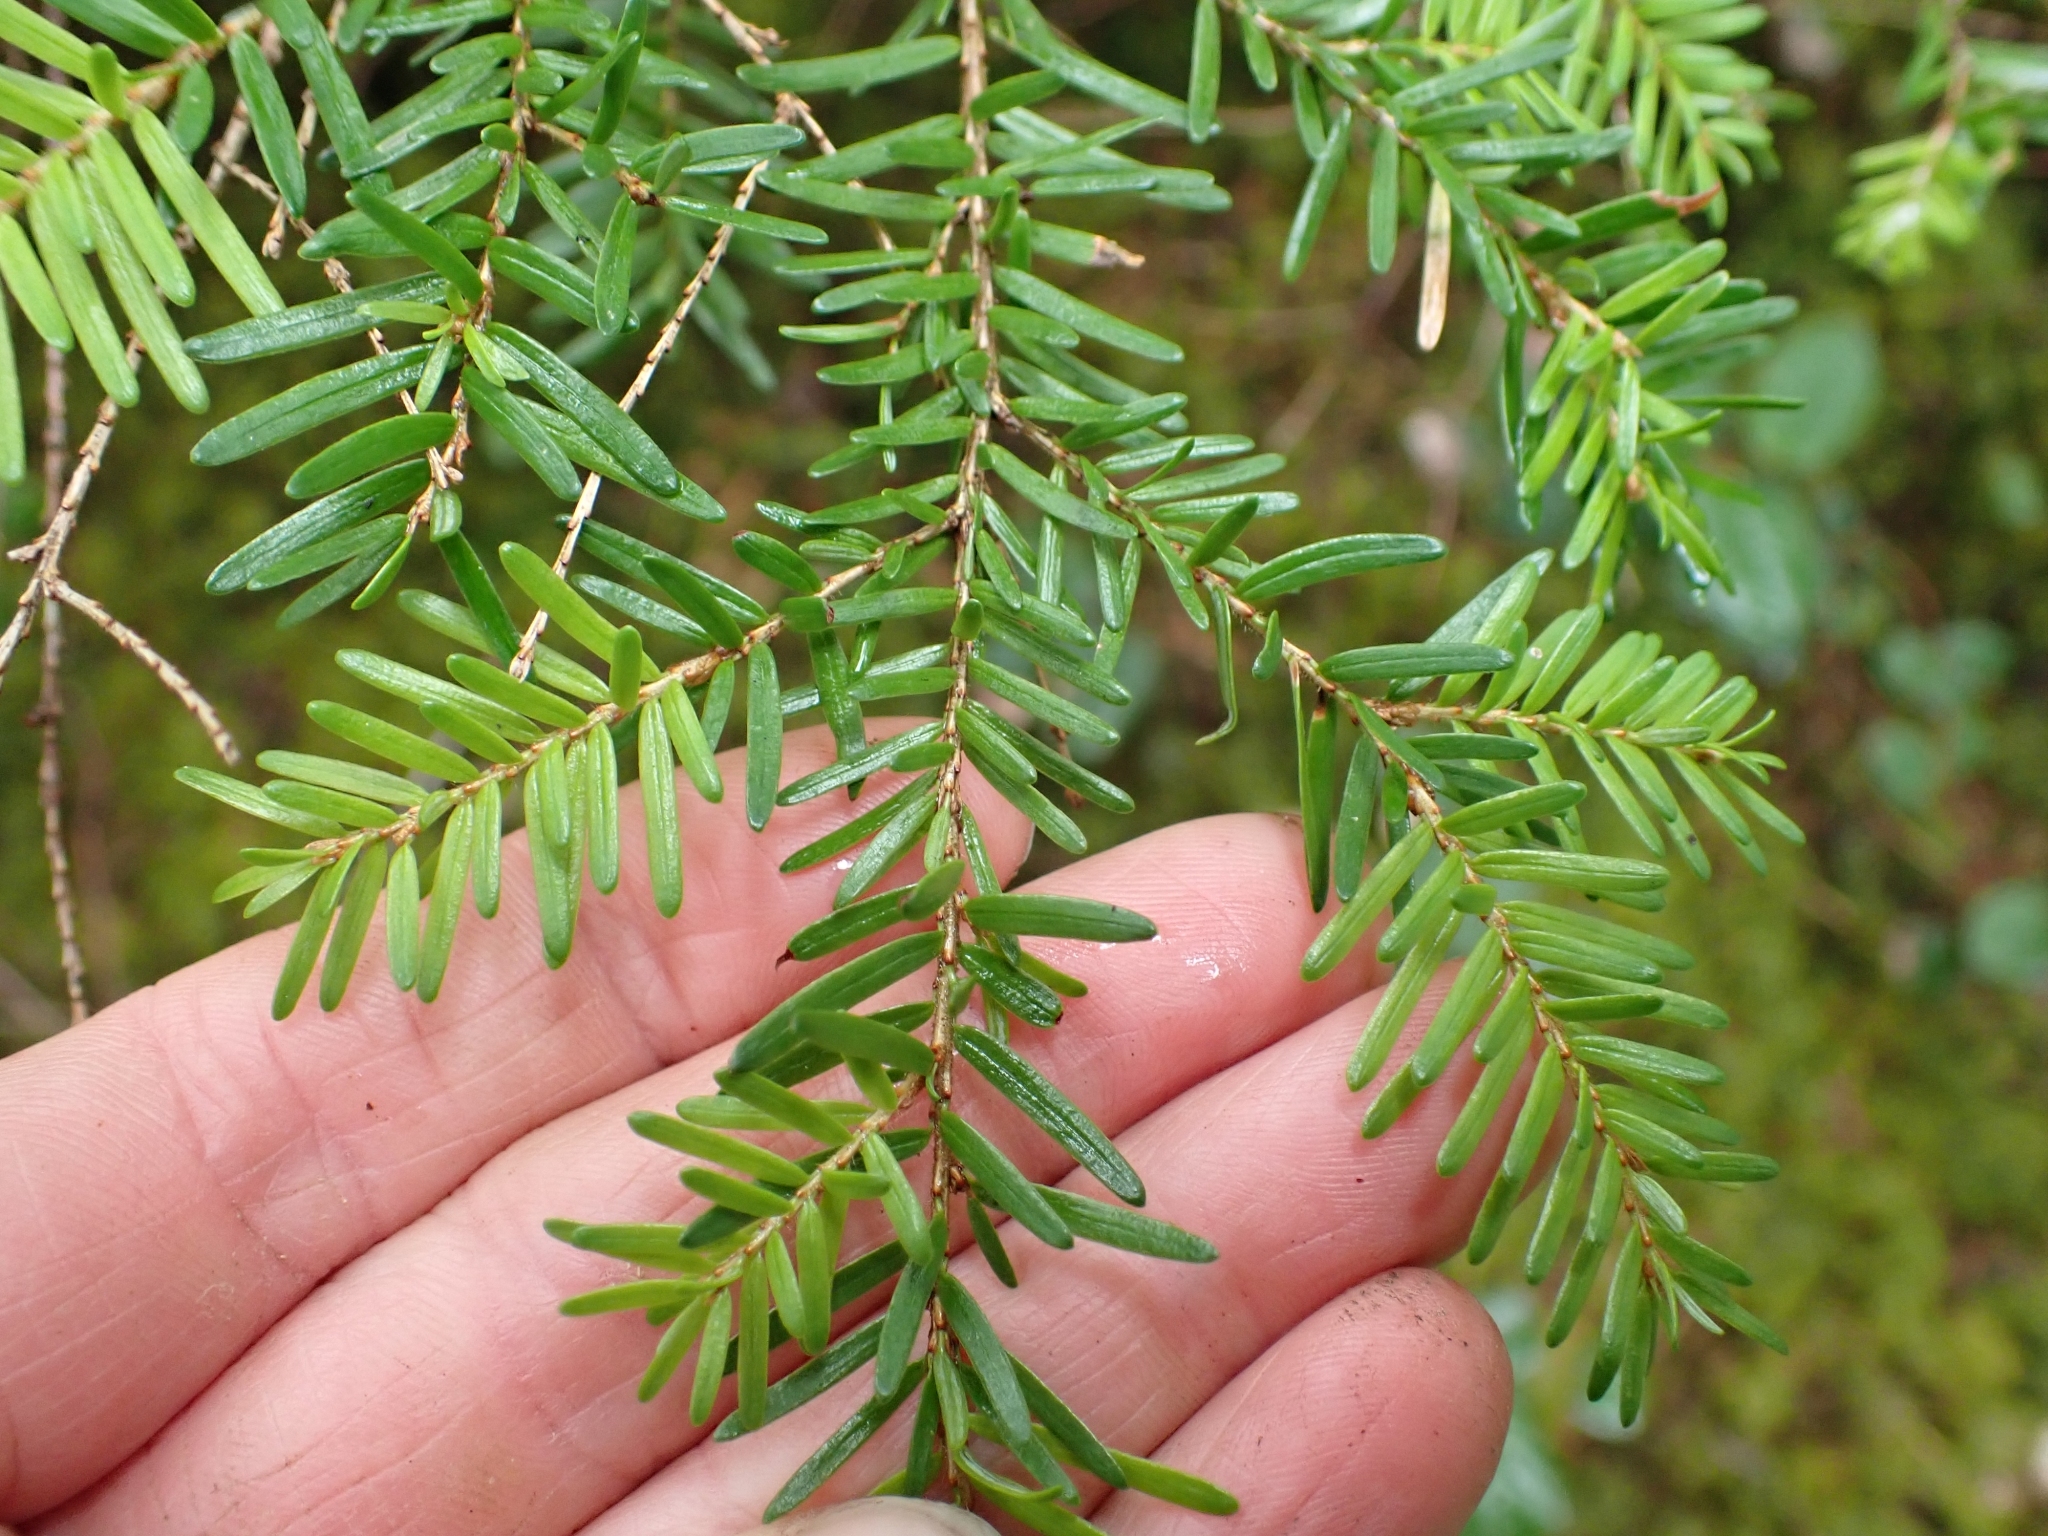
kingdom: Plantae
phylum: Tracheophyta
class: Pinopsida
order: Pinales
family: Pinaceae
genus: Tsuga
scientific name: Tsuga heterophylla
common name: Western hemlock
